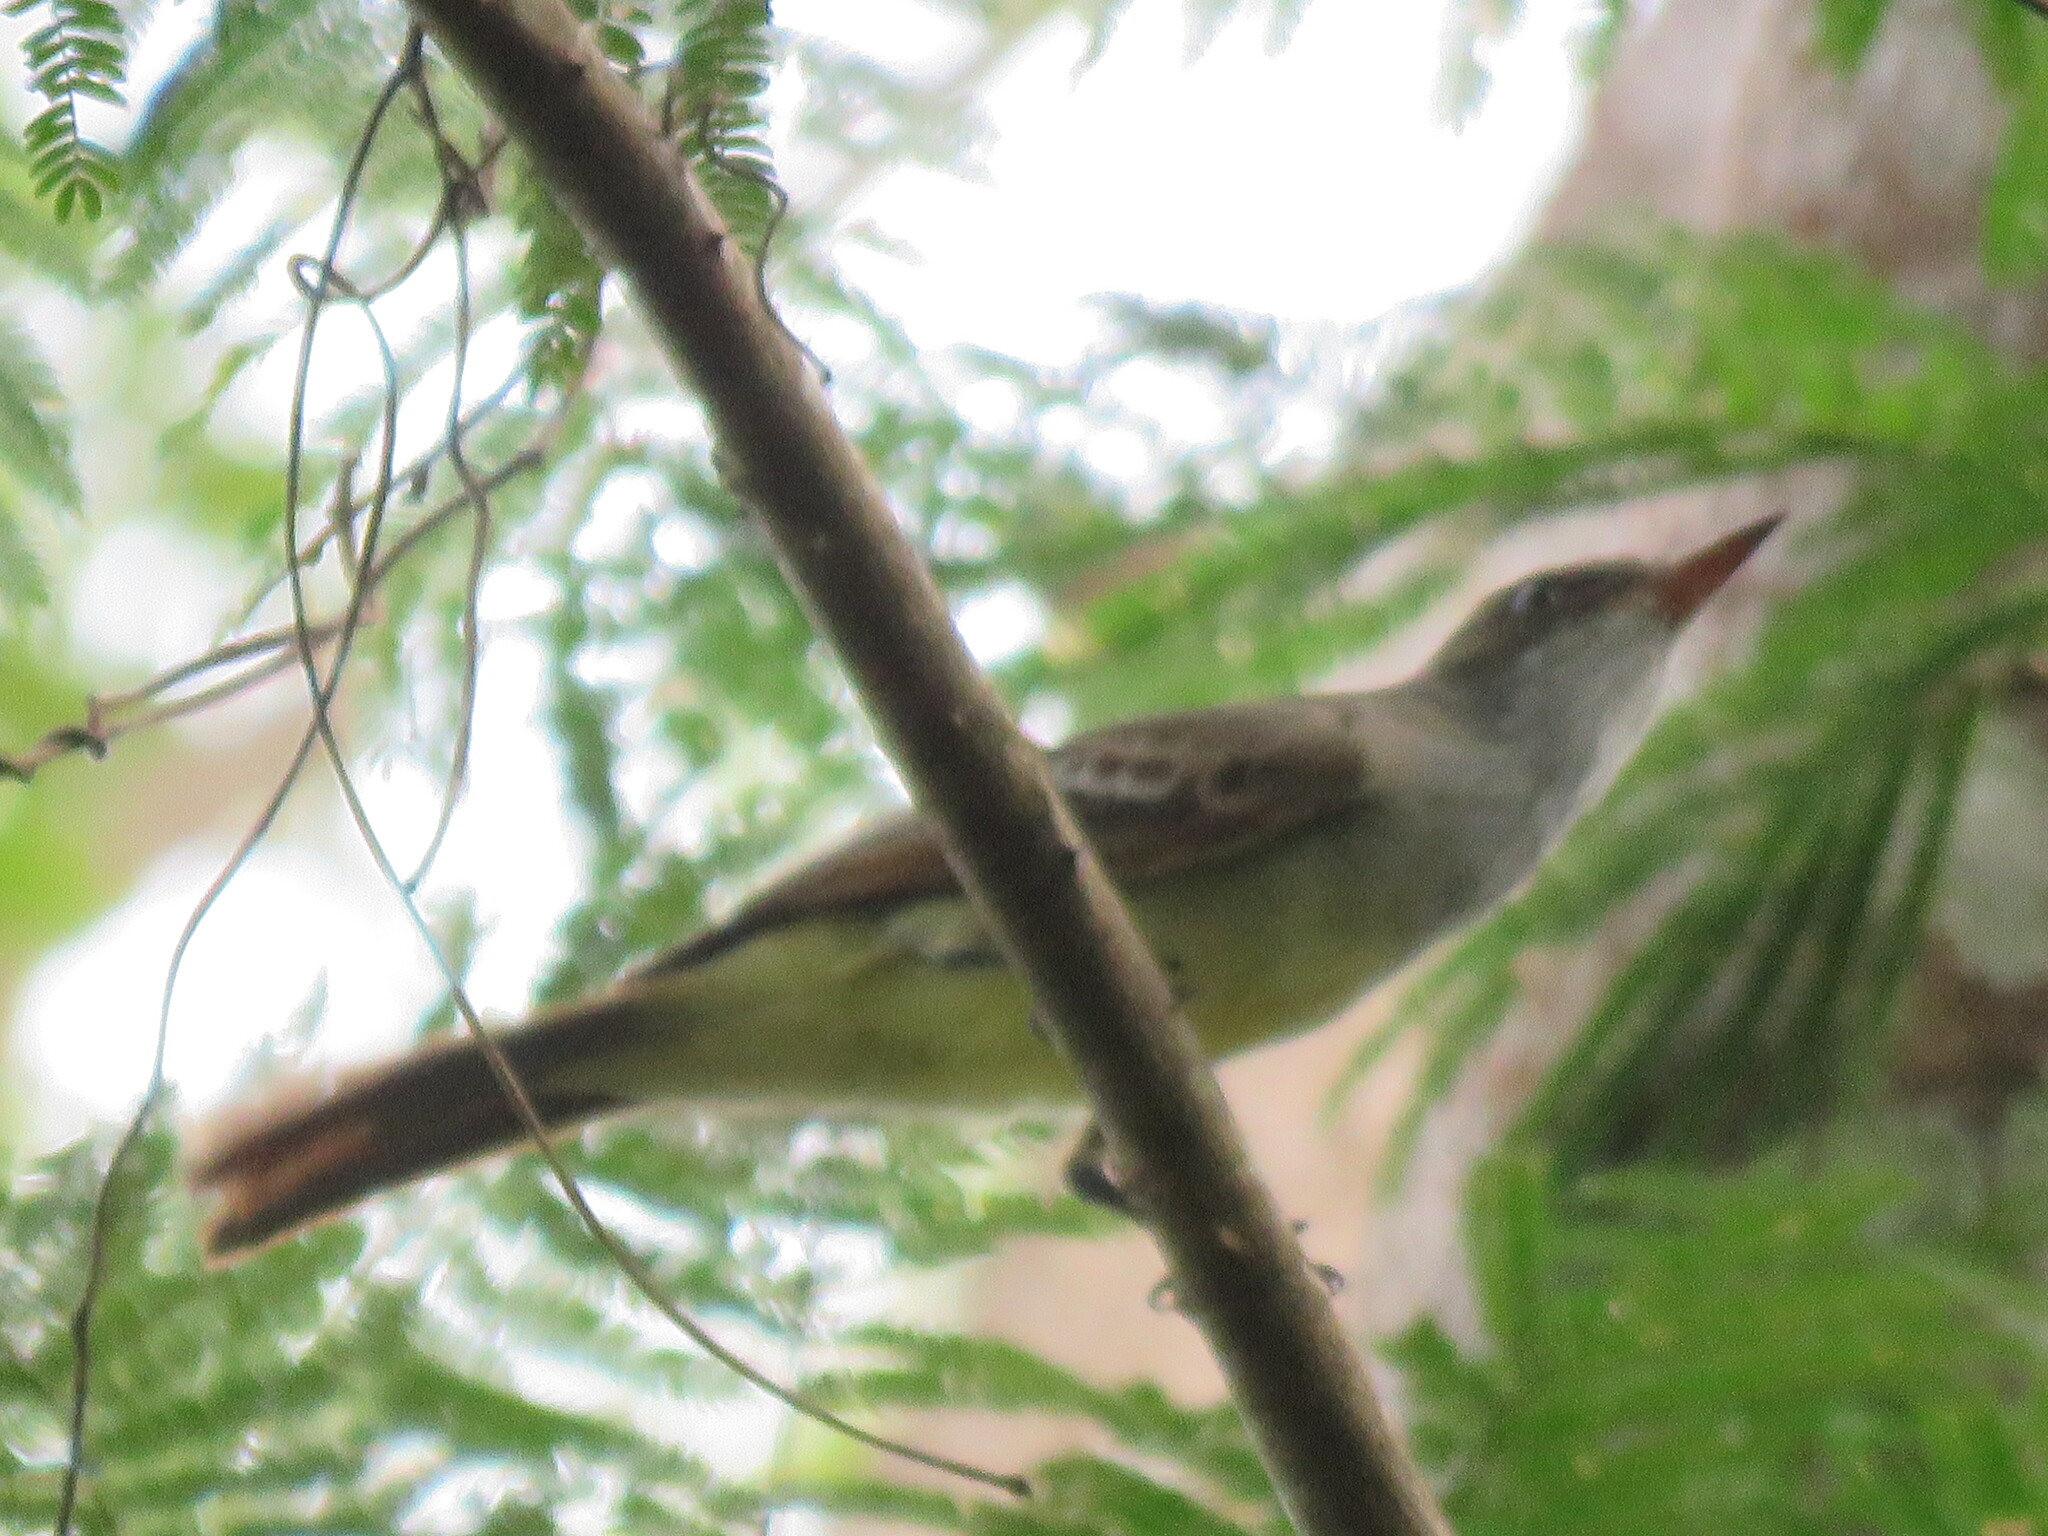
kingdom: Animalia
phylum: Chordata
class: Aves
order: Passeriformes
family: Tyrannidae
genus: Myiarchus
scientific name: Myiarchus swainsoni
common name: Swainson's flycatcher
